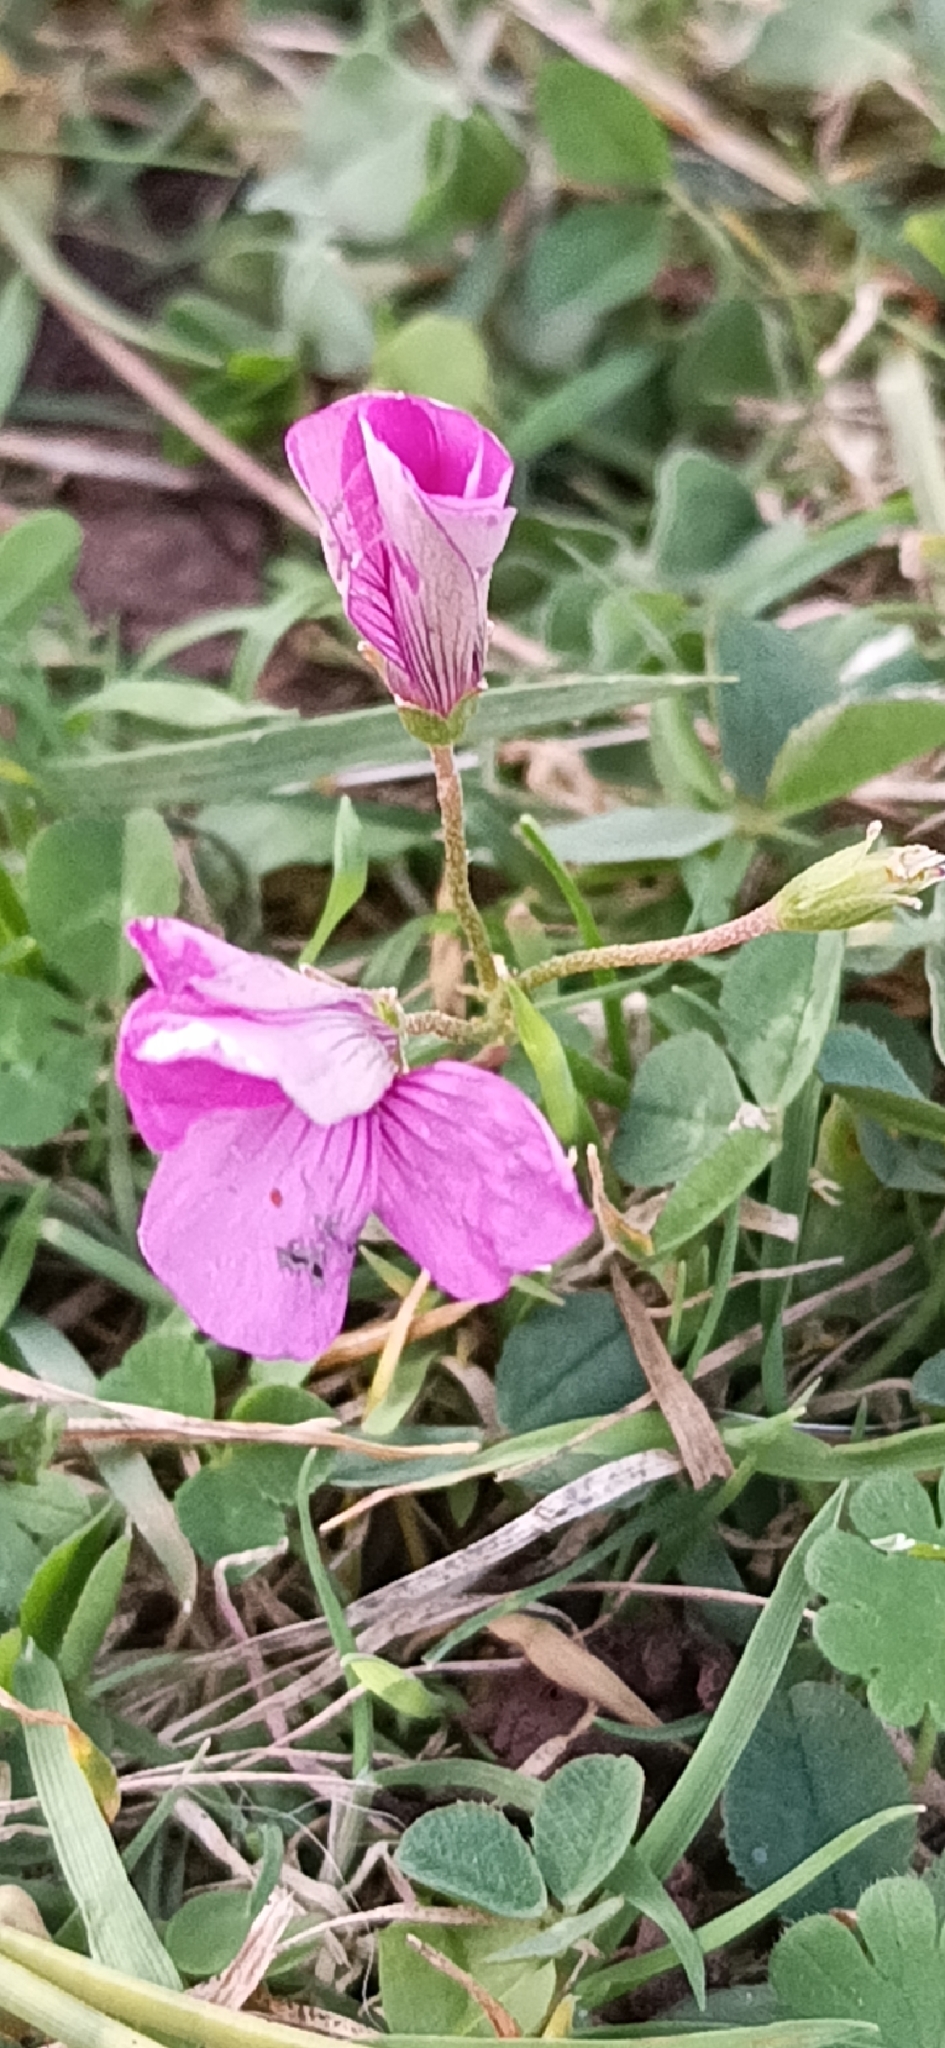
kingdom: Plantae
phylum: Tracheophyta
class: Magnoliopsida
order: Oxalidales
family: Oxalidaceae
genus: Oxalis
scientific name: Oxalis articulata
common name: Pink-sorrel
